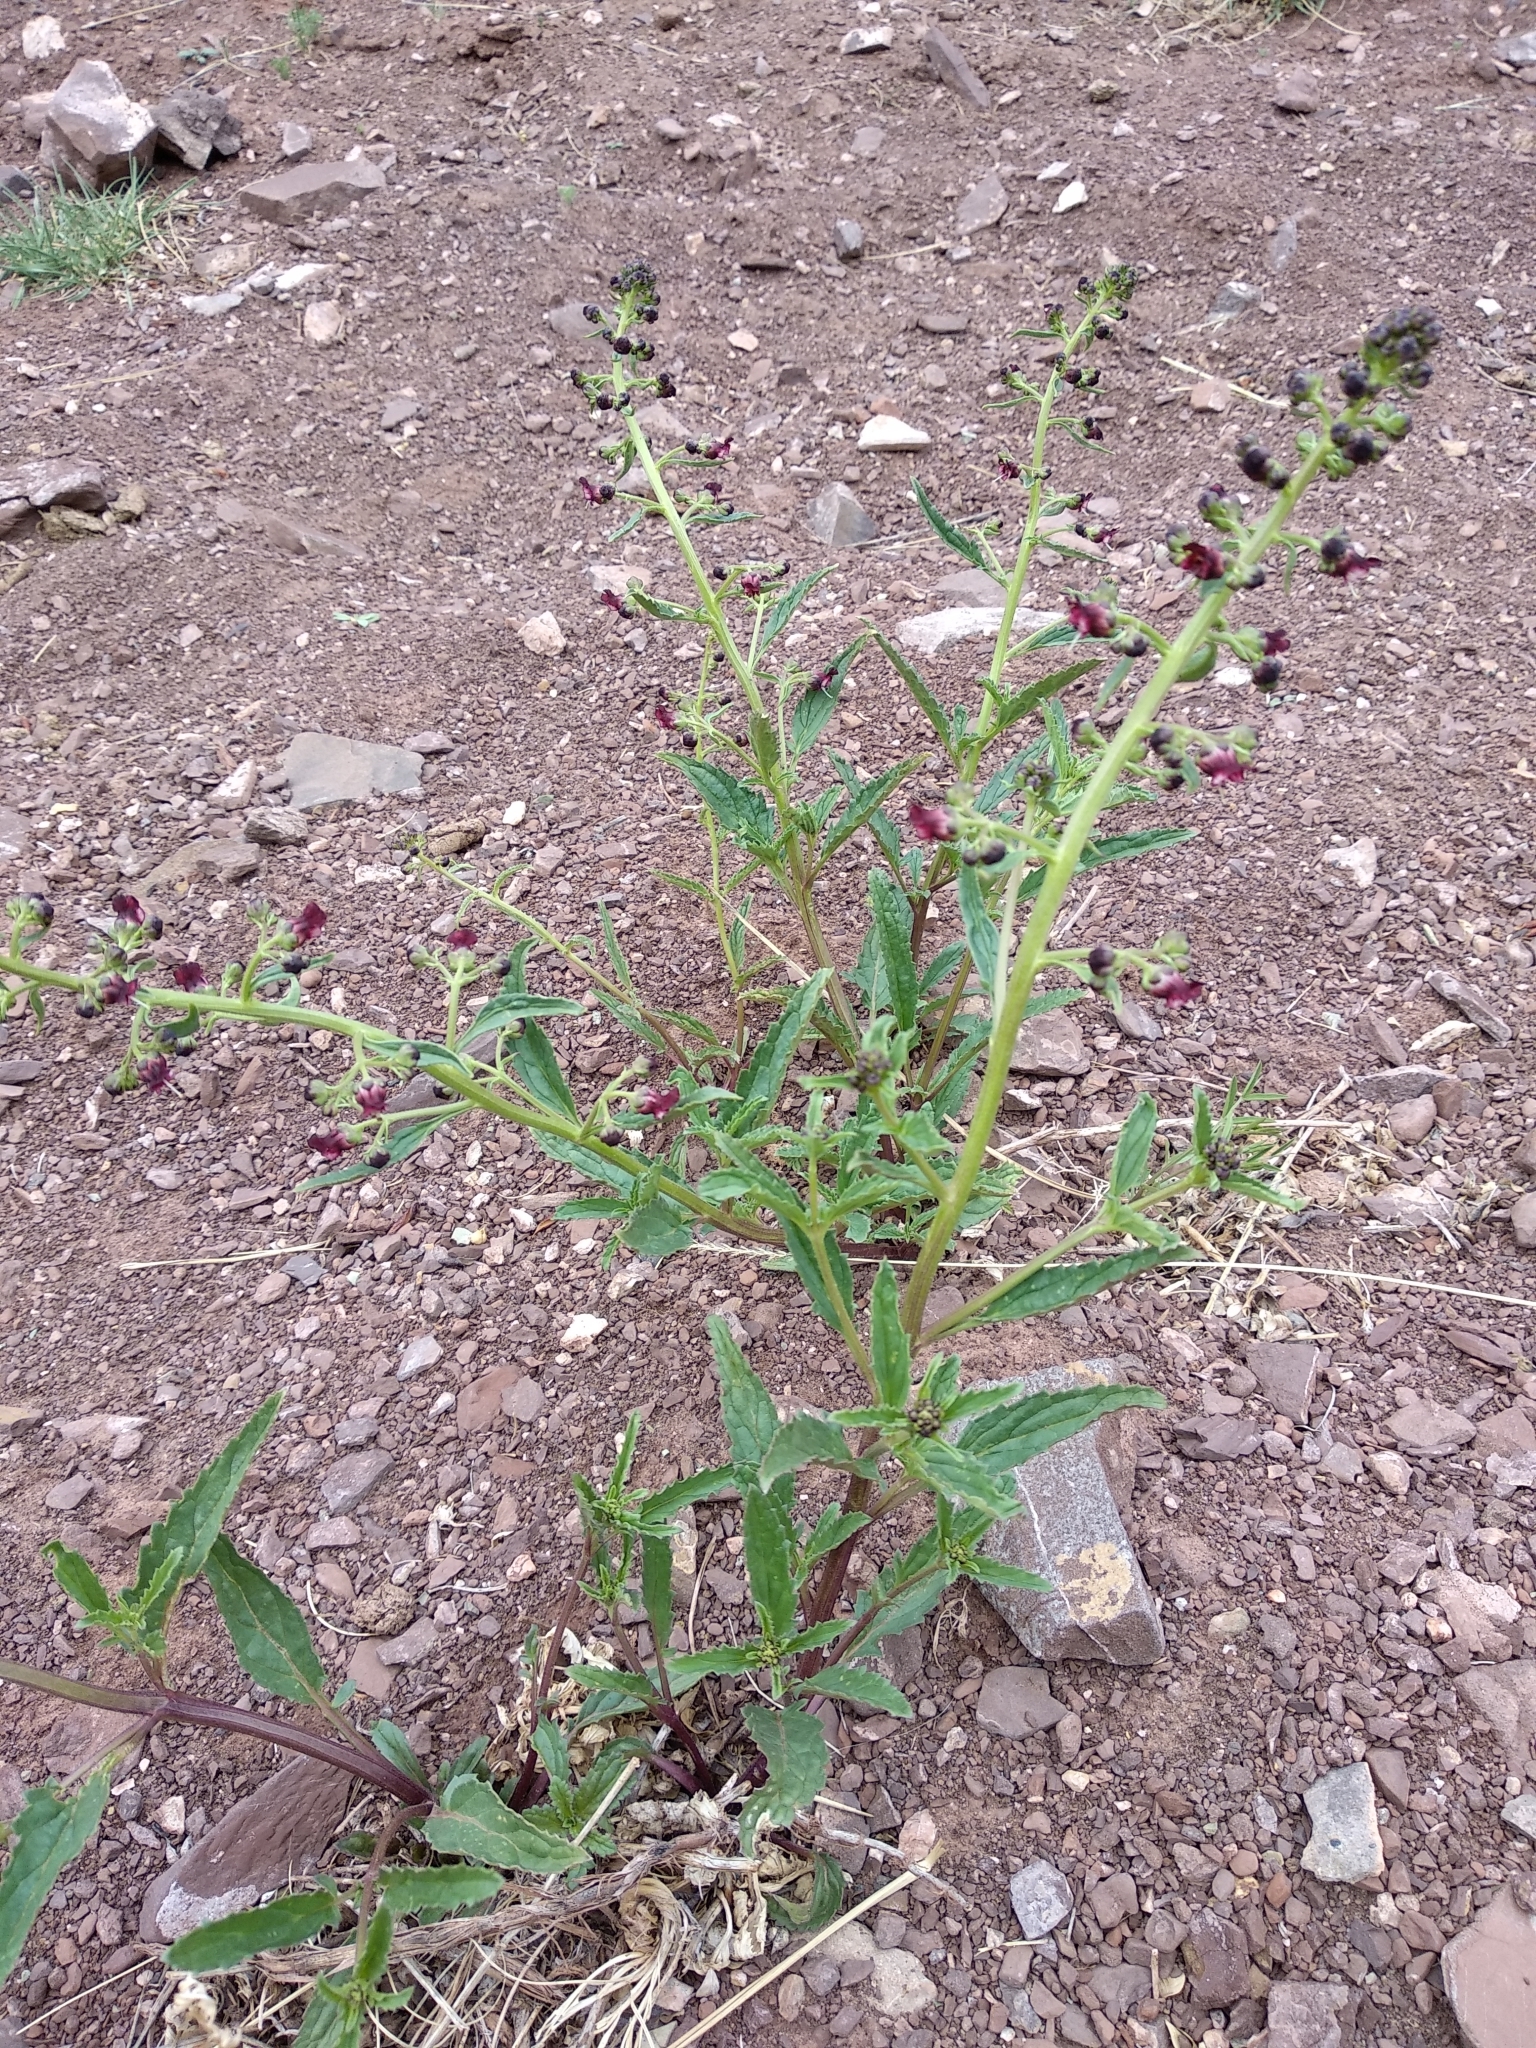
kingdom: Plantae
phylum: Tracheophyta
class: Magnoliopsida
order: Lamiales
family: Scrophulariaceae
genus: Scrophularia
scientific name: Scrophularia incisa
